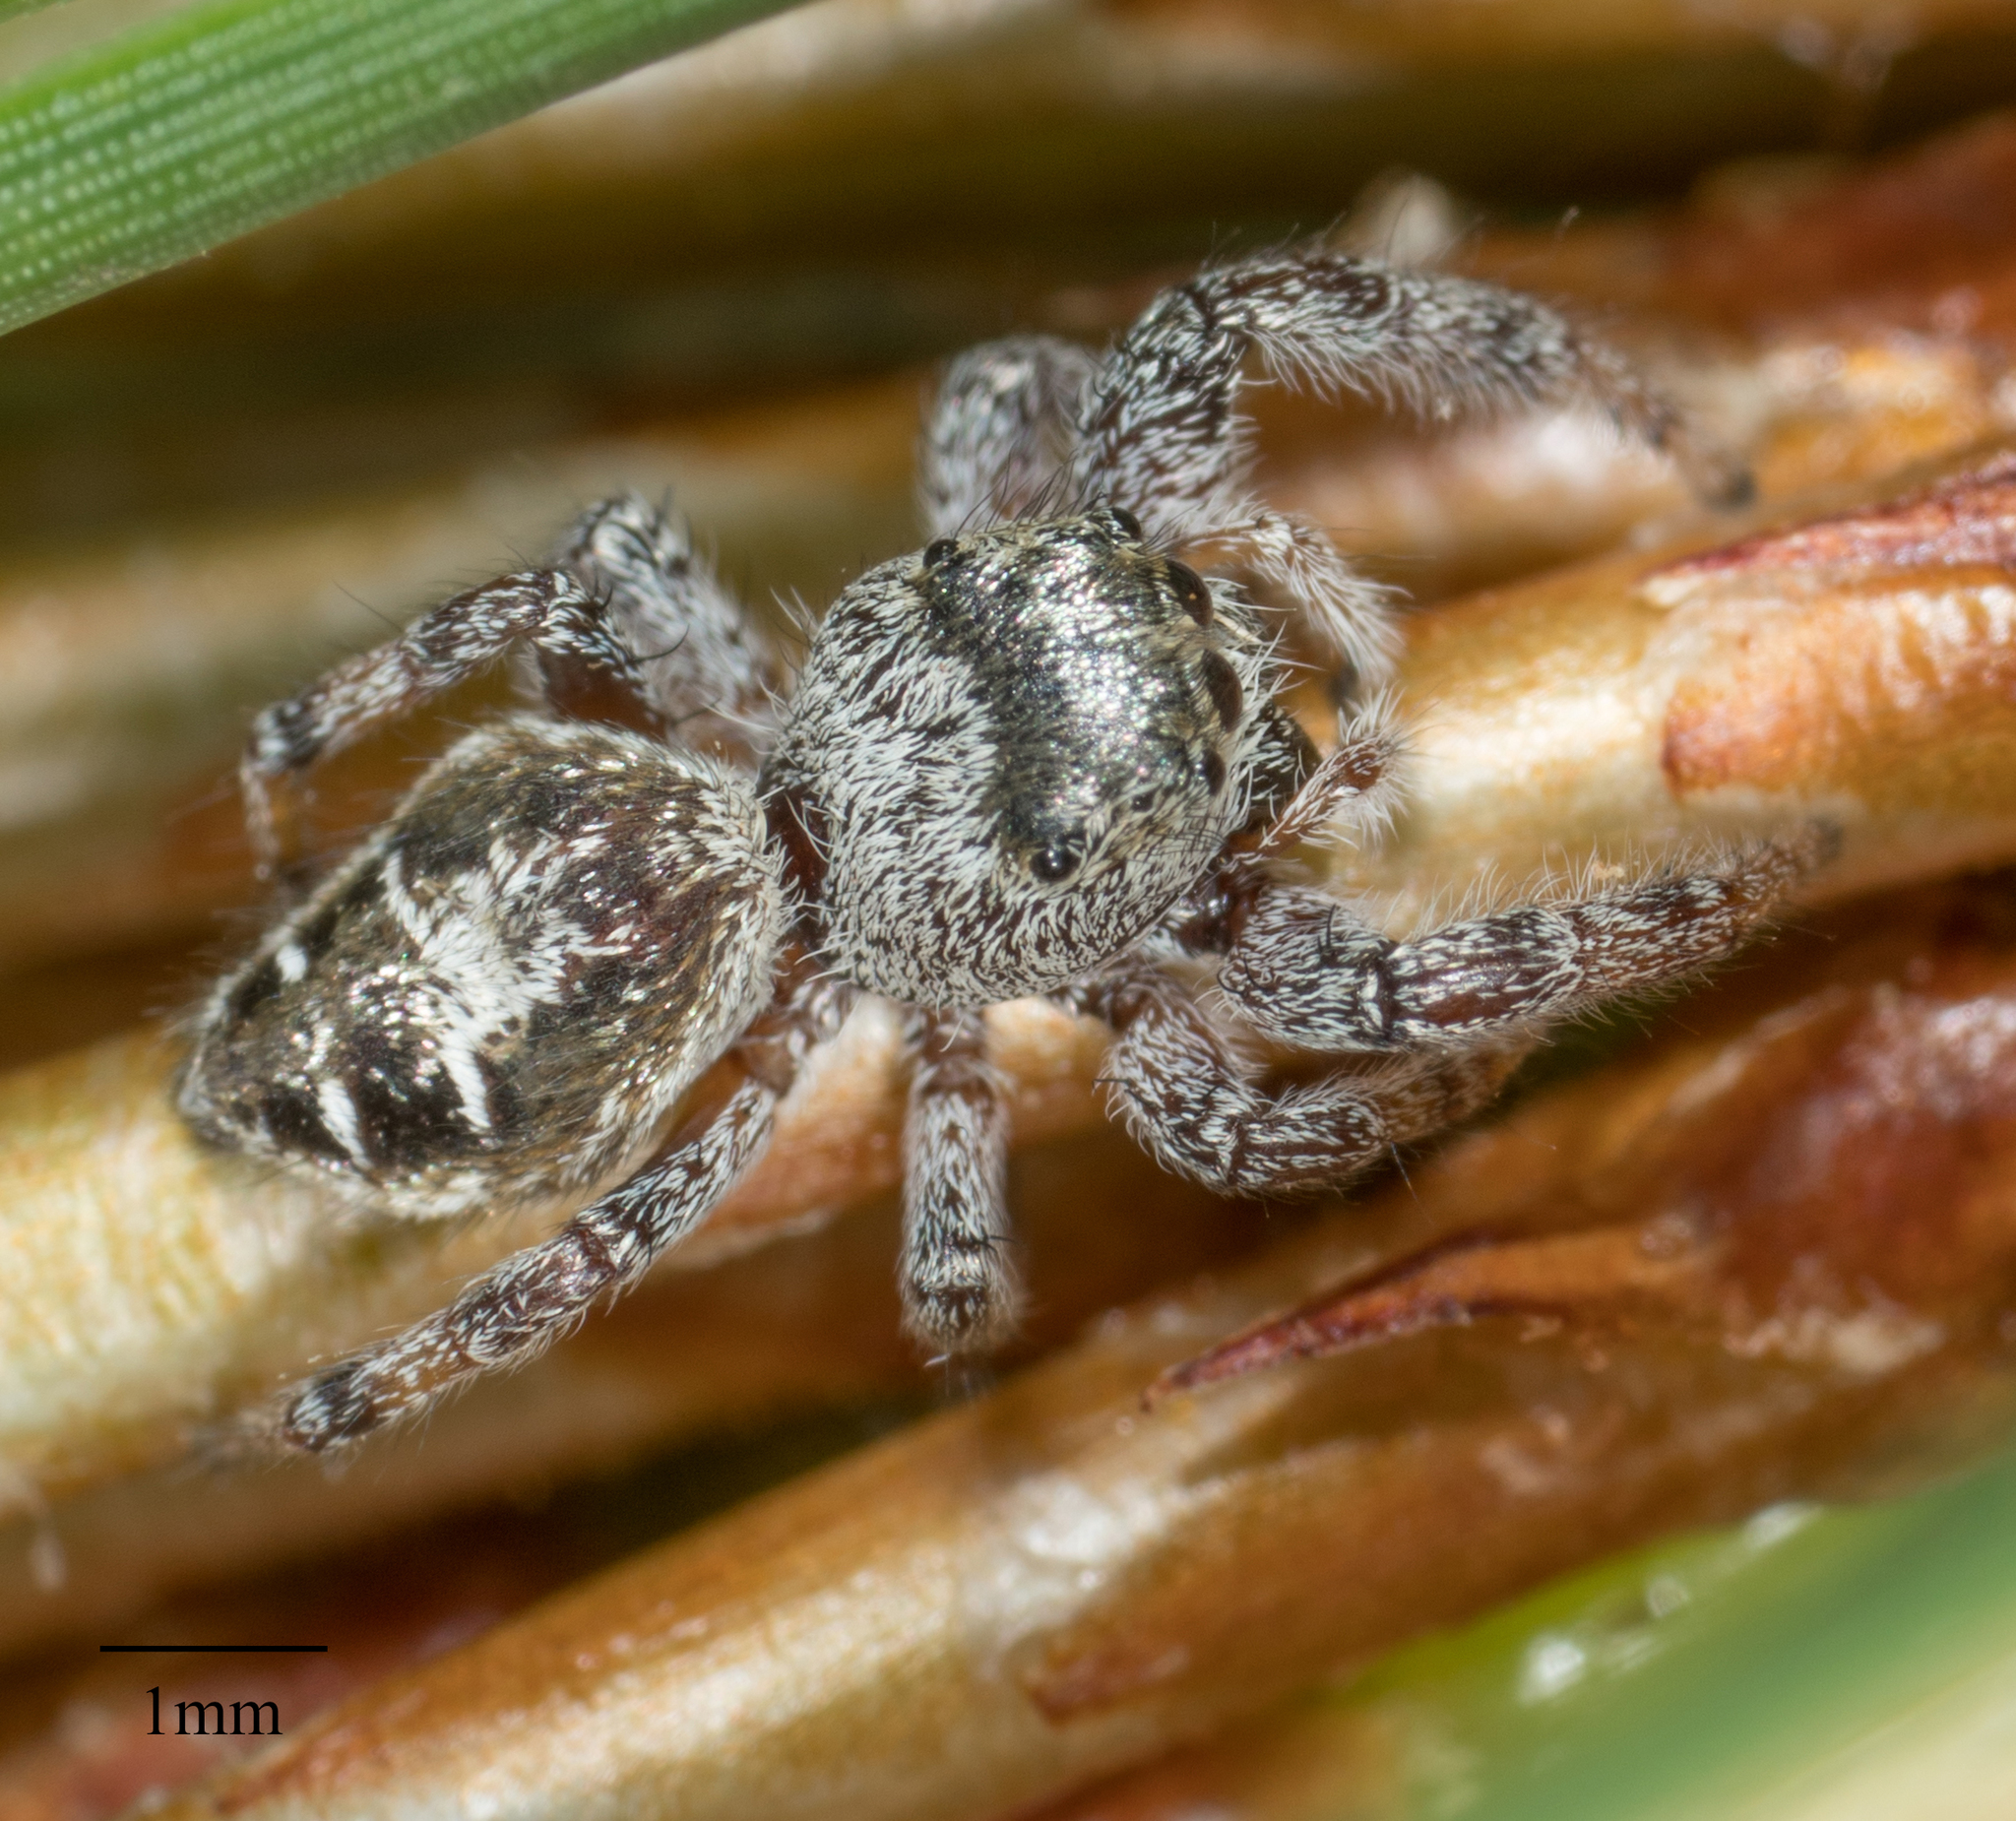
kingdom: Animalia
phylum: Arthropoda
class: Arachnida
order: Araneae
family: Salticidae
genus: Pelegrina
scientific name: Pelegrina aeneola
